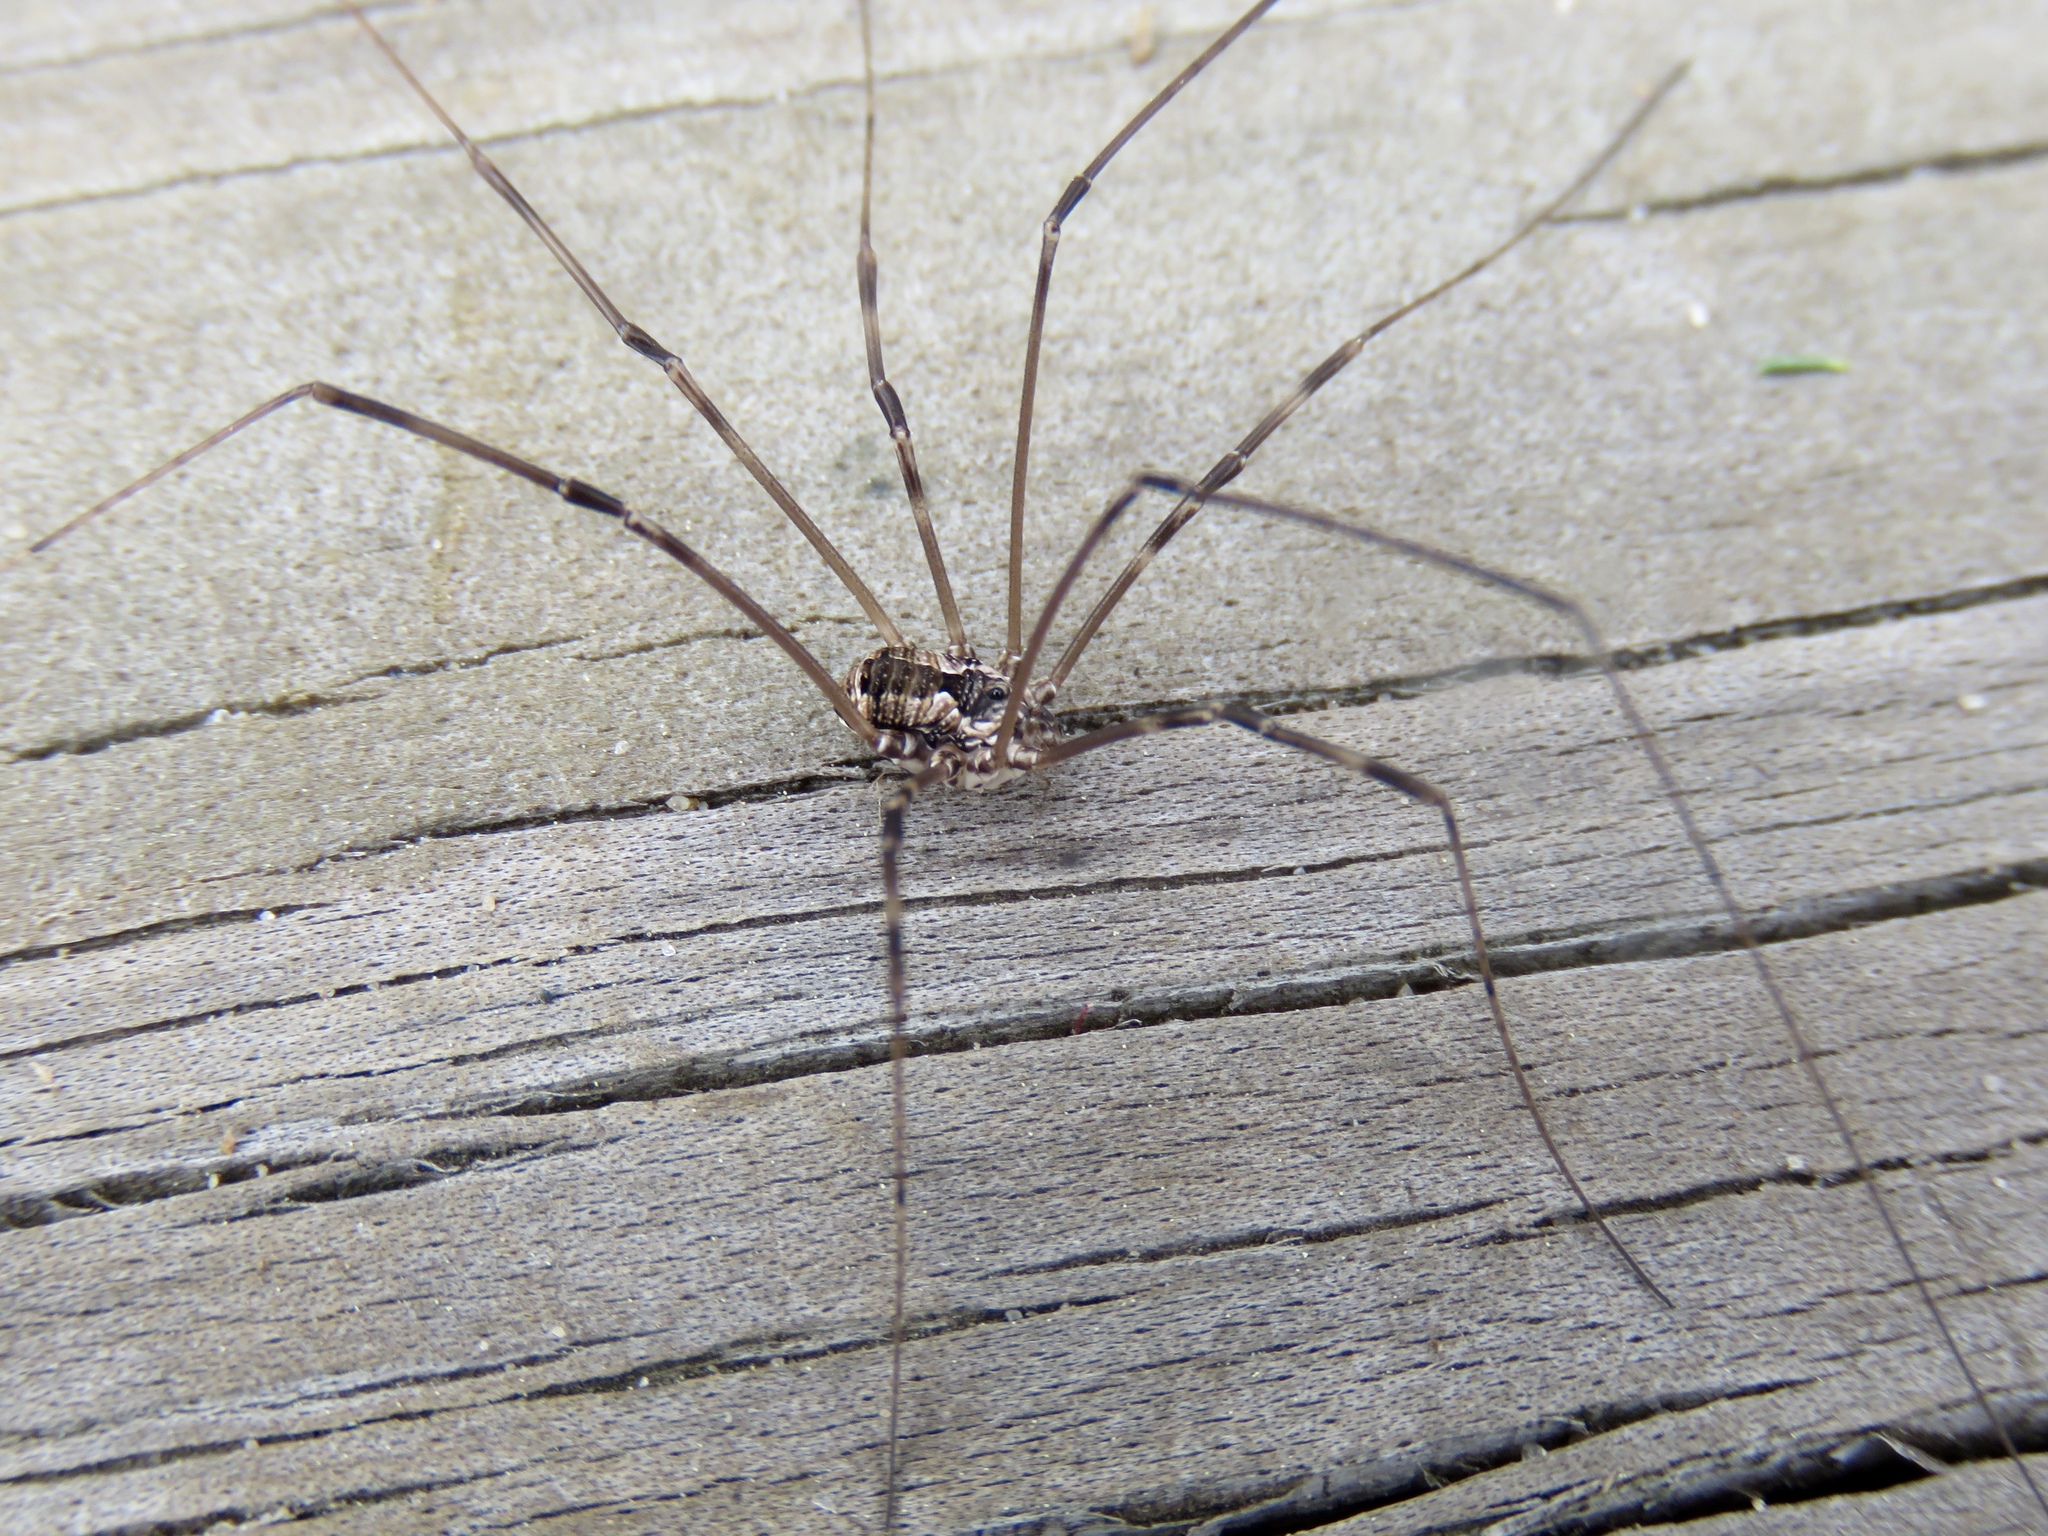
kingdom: Animalia
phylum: Arthropoda
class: Arachnida
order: Opiliones
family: Sclerosomatidae
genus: Leiobunum
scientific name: Leiobunum flavum
